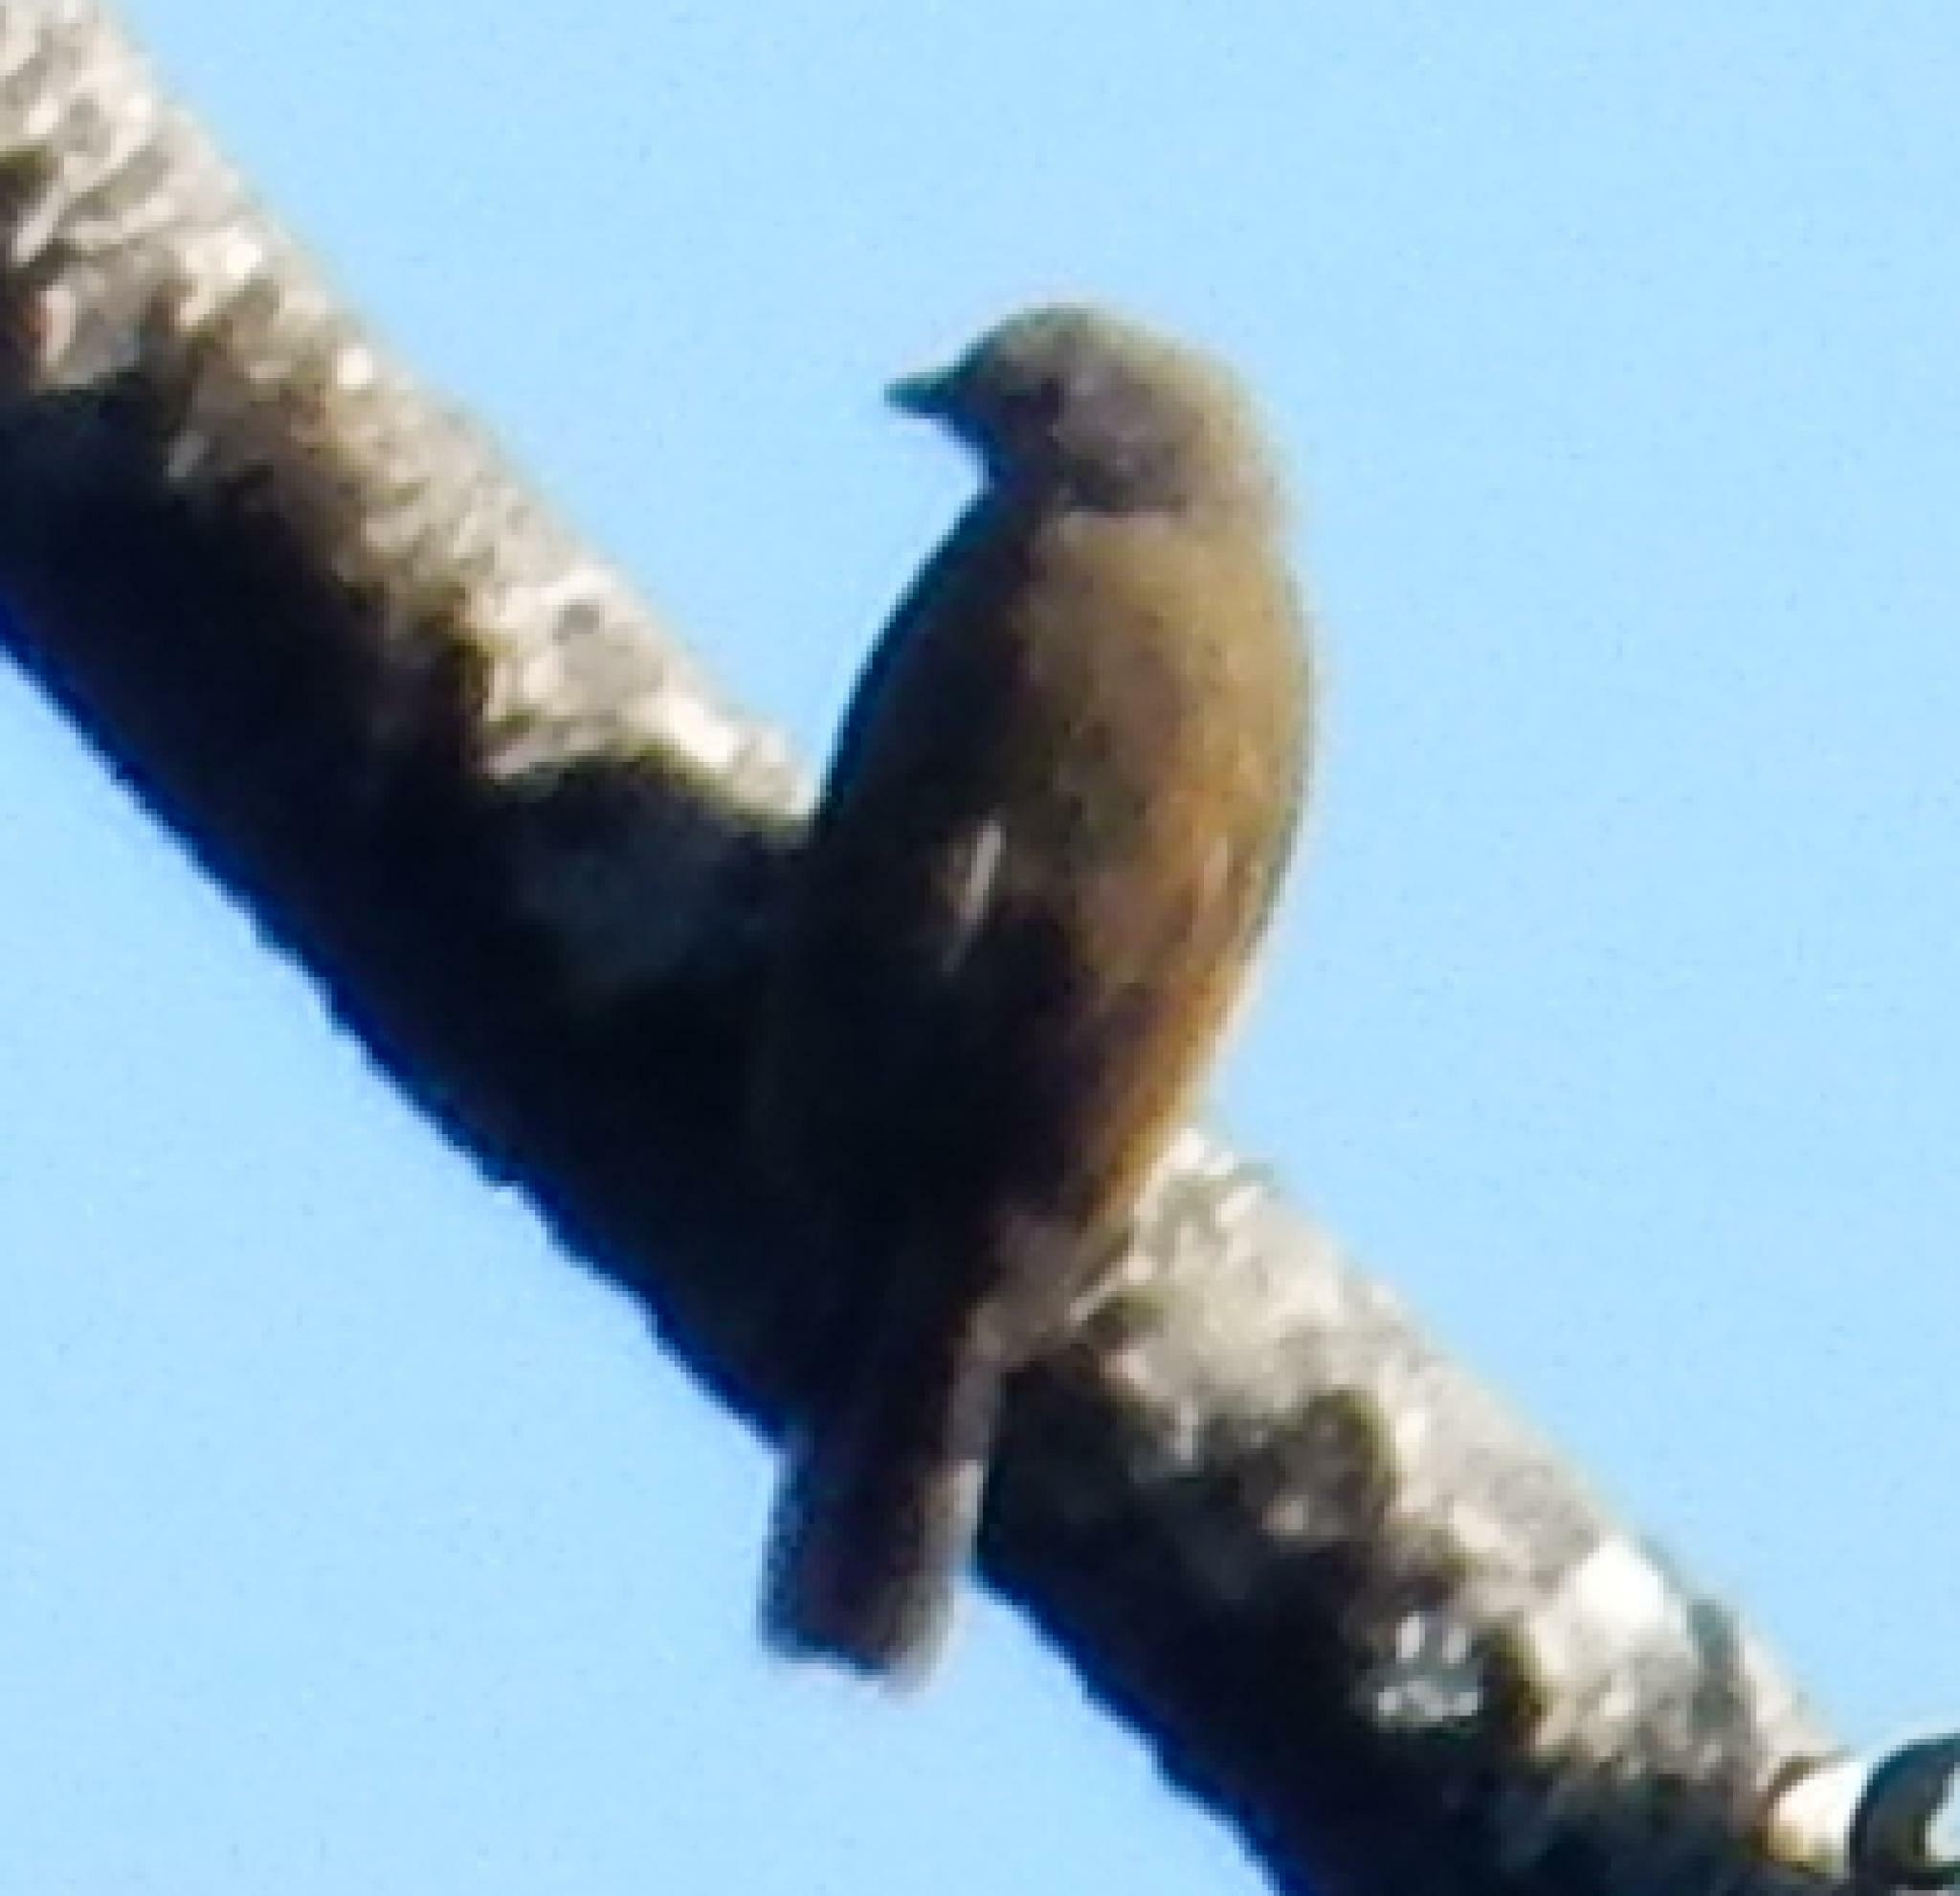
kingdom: Animalia
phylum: Chordata
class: Aves
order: Piciformes
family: Indicatoridae
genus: Indicator
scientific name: Indicator minor
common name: Lesser honeyguide
